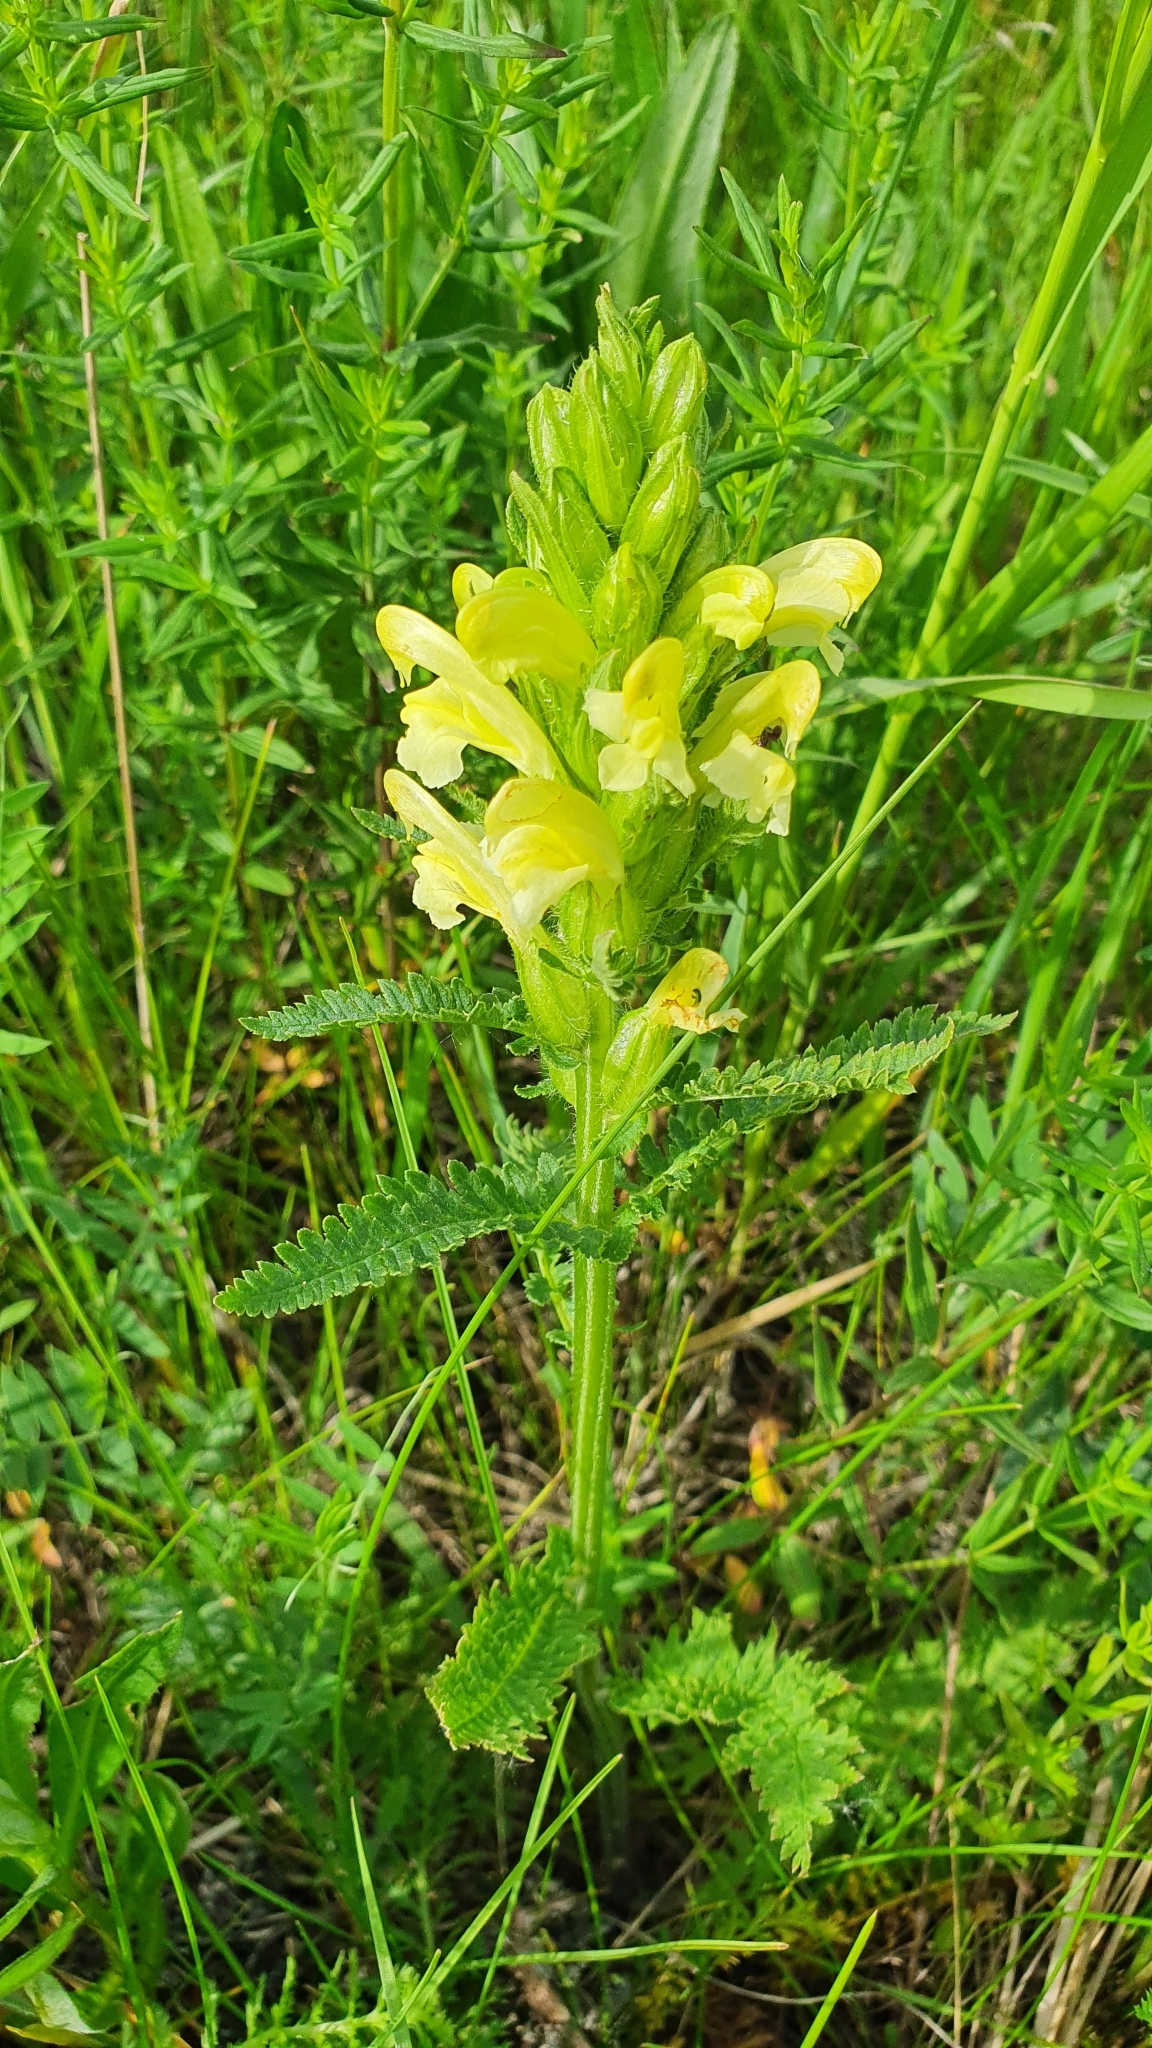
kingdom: Plantae
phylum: Tracheophyta
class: Magnoliopsida
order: Lamiales
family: Orobanchaceae
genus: Pedicularis
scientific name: Pedicularis kaufmannii
